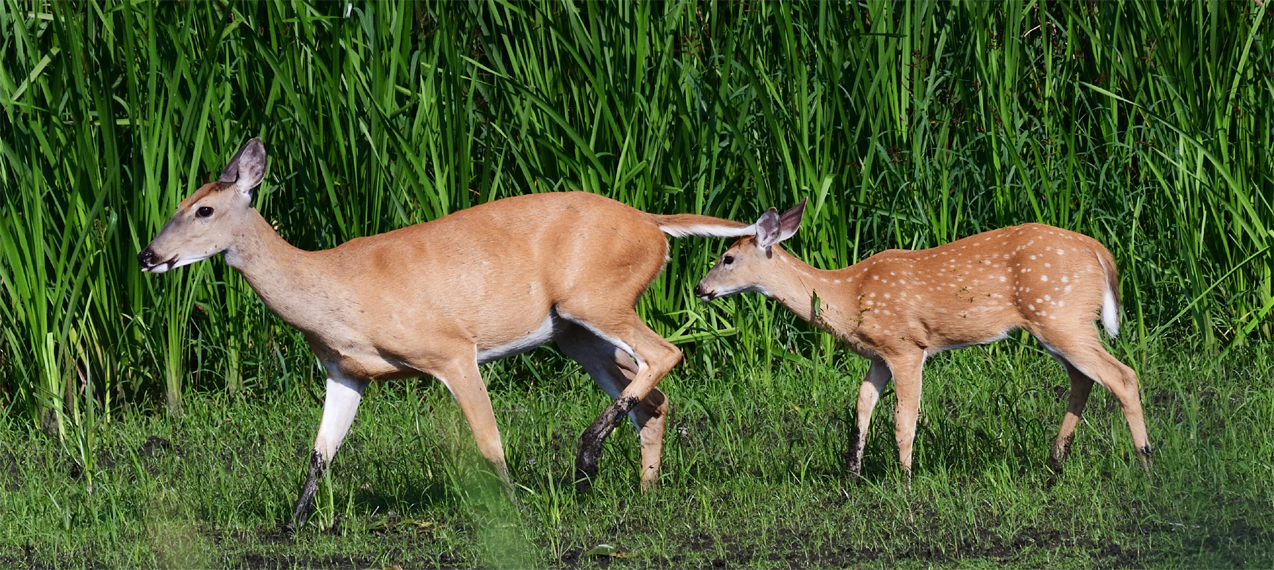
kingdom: Animalia
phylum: Chordata
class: Mammalia
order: Artiodactyla
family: Cervidae
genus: Odocoileus
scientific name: Odocoileus virginianus
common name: White-tailed deer
